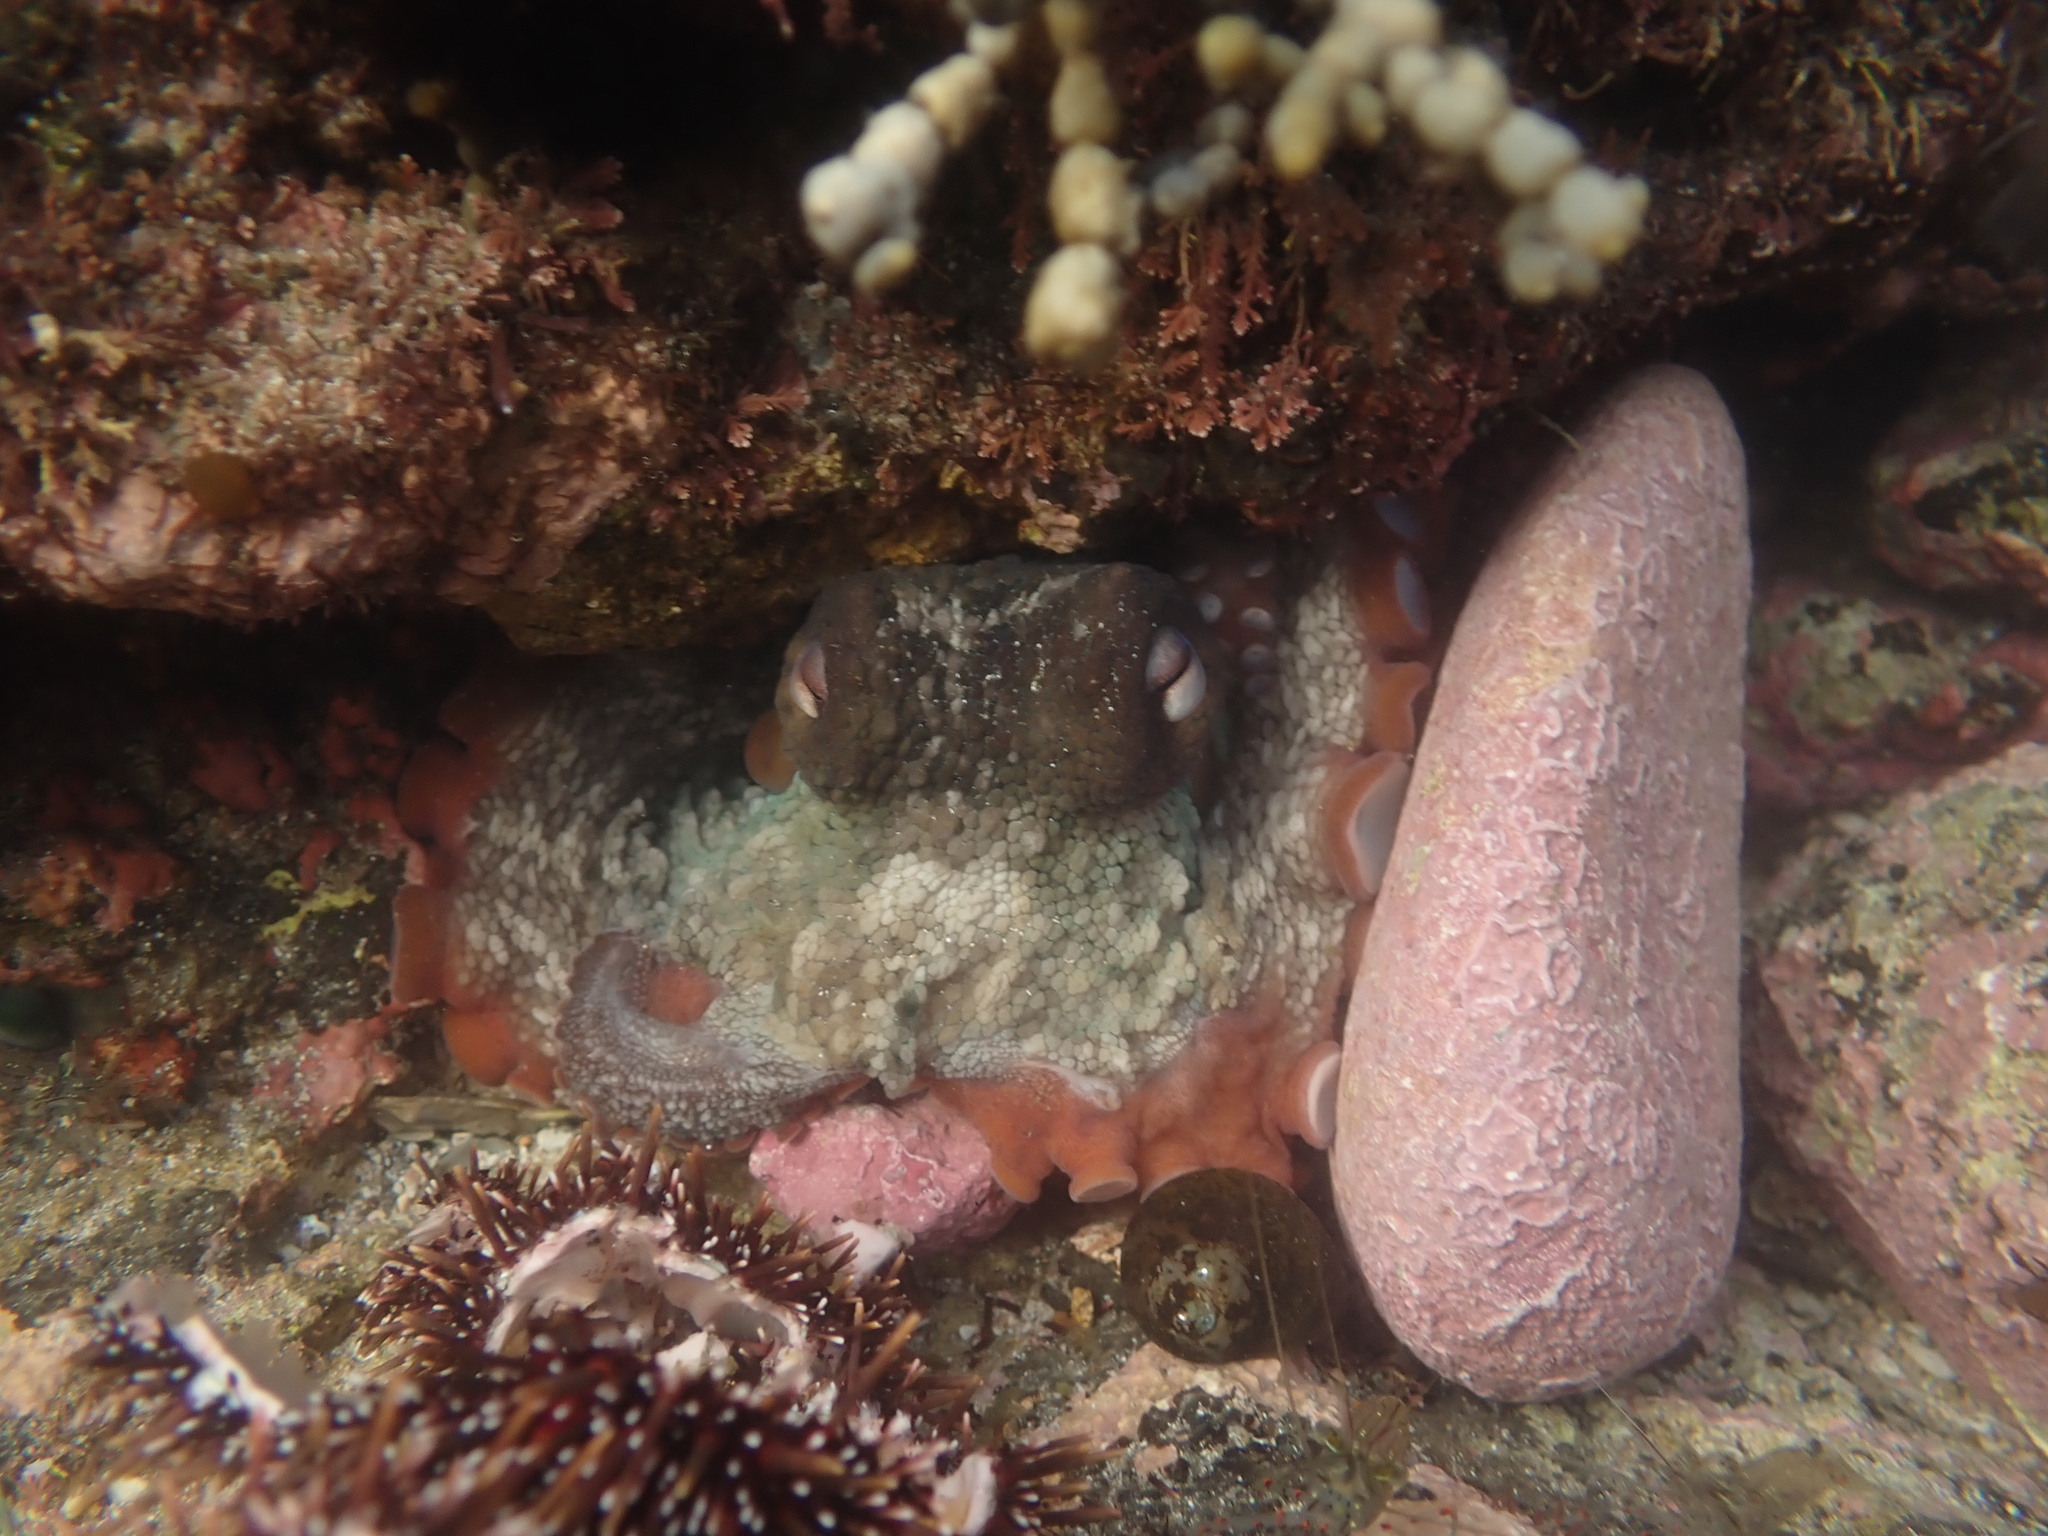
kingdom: Animalia
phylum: Mollusca
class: Cephalopoda
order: Octopoda
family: Octopodidae
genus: Octopus
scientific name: Octopus tetricus
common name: Sydney octopus
